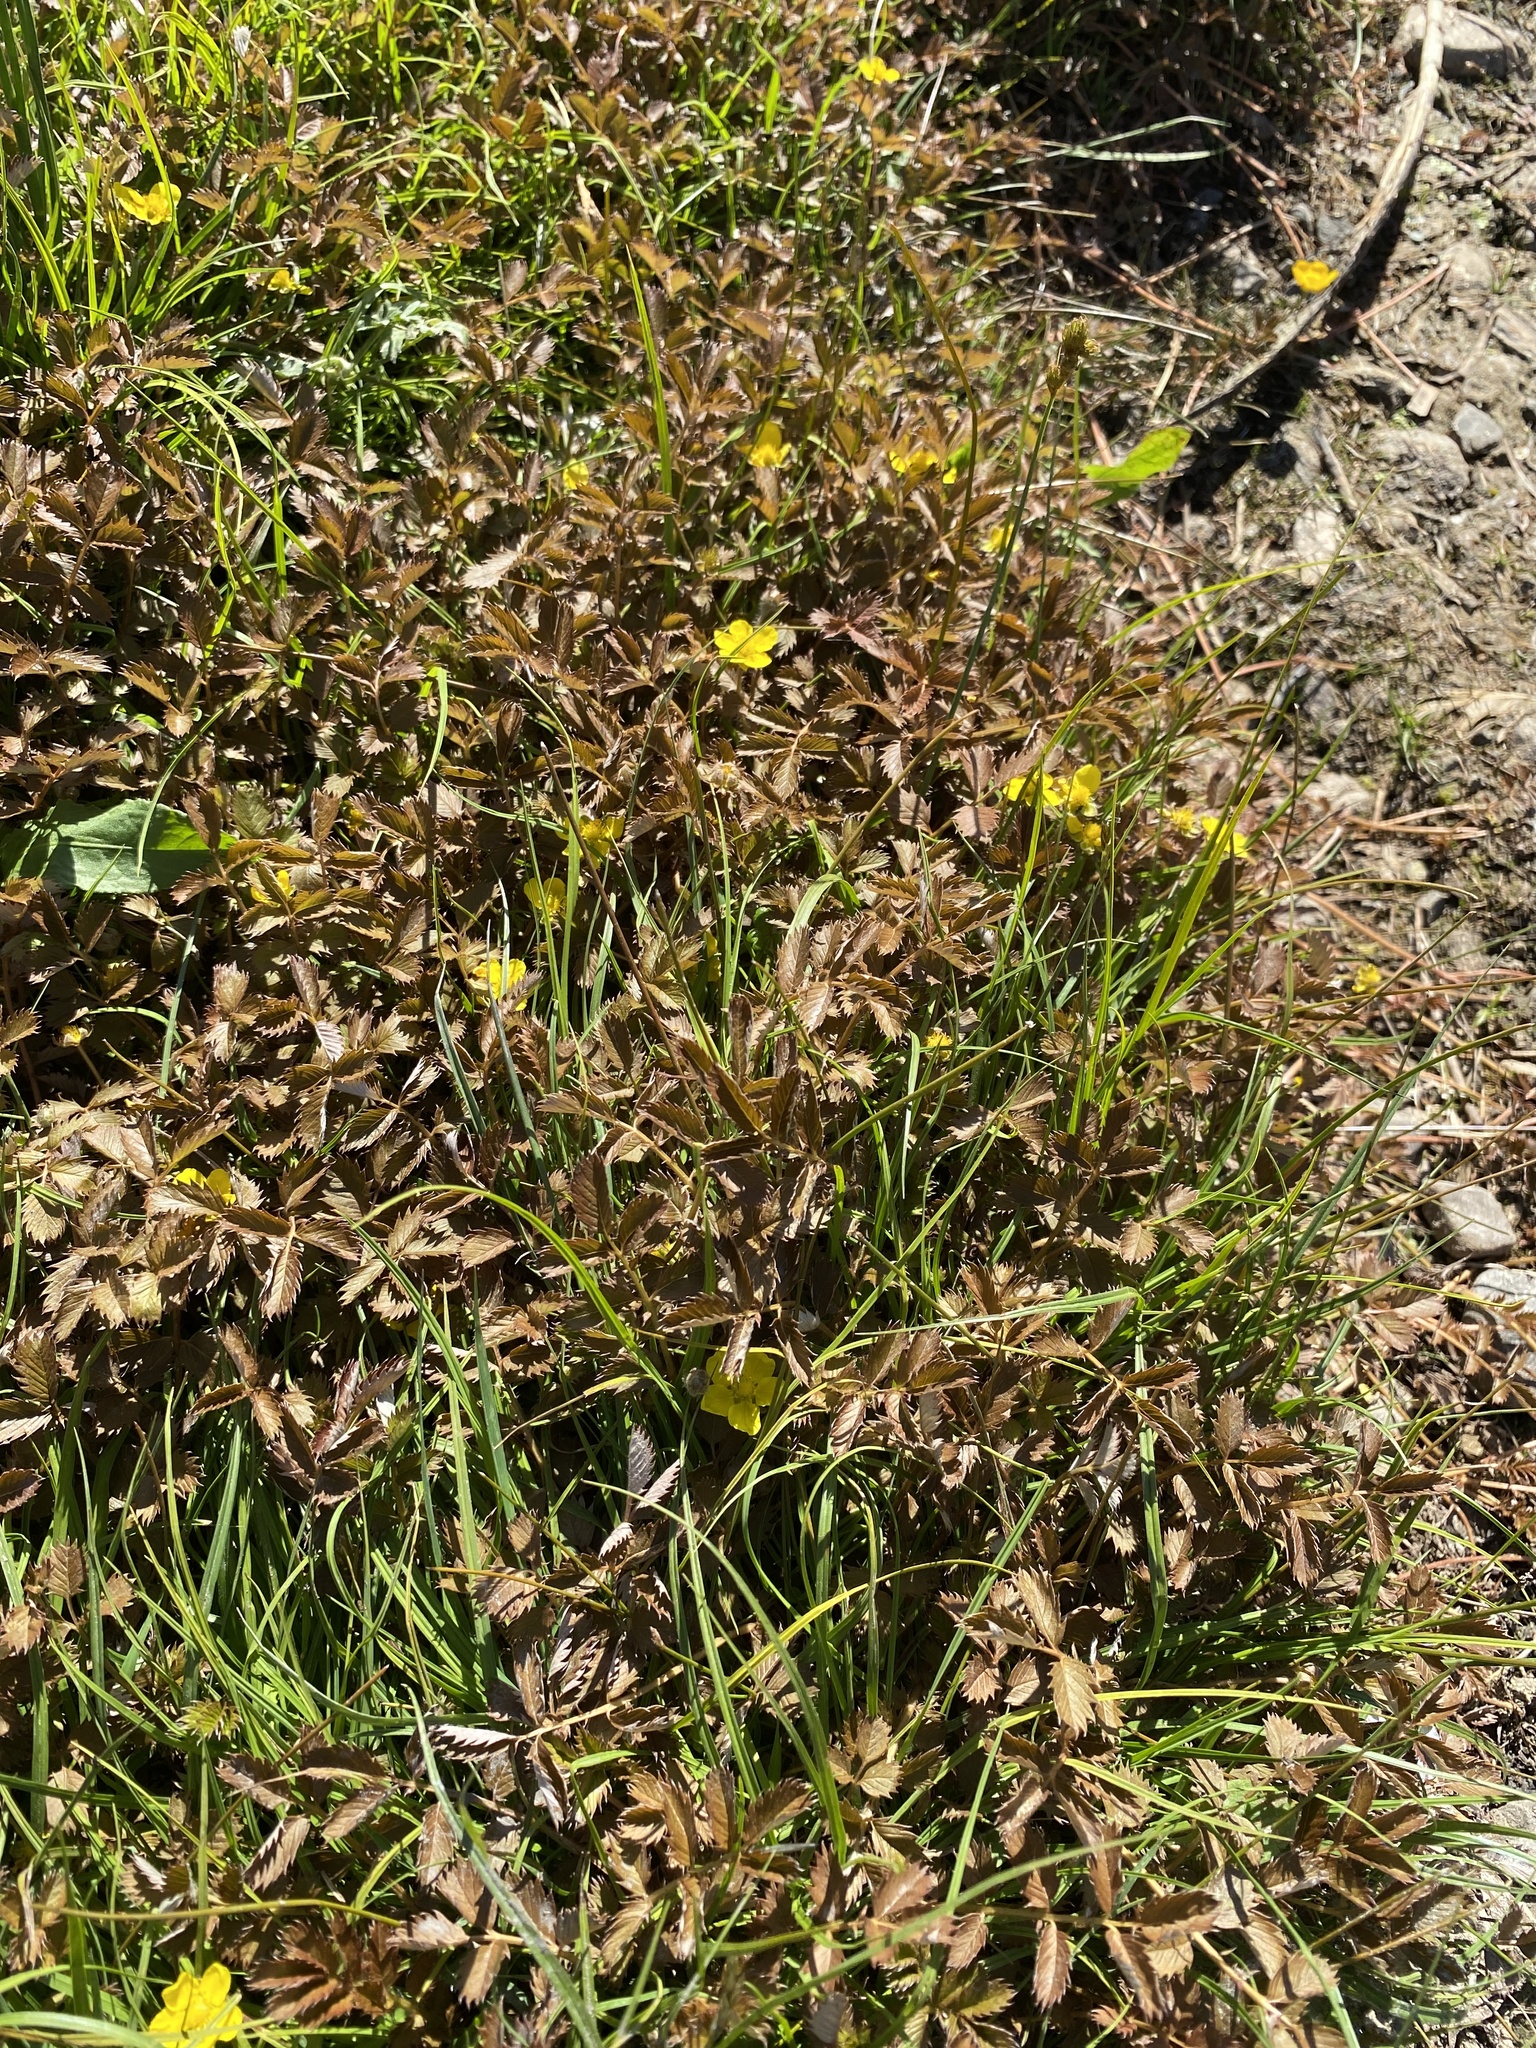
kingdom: Plantae
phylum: Tracheophyta
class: Magnoliopsida
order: Rosales
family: Rosaceae
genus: Argentina
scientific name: Argentina anserinoides
